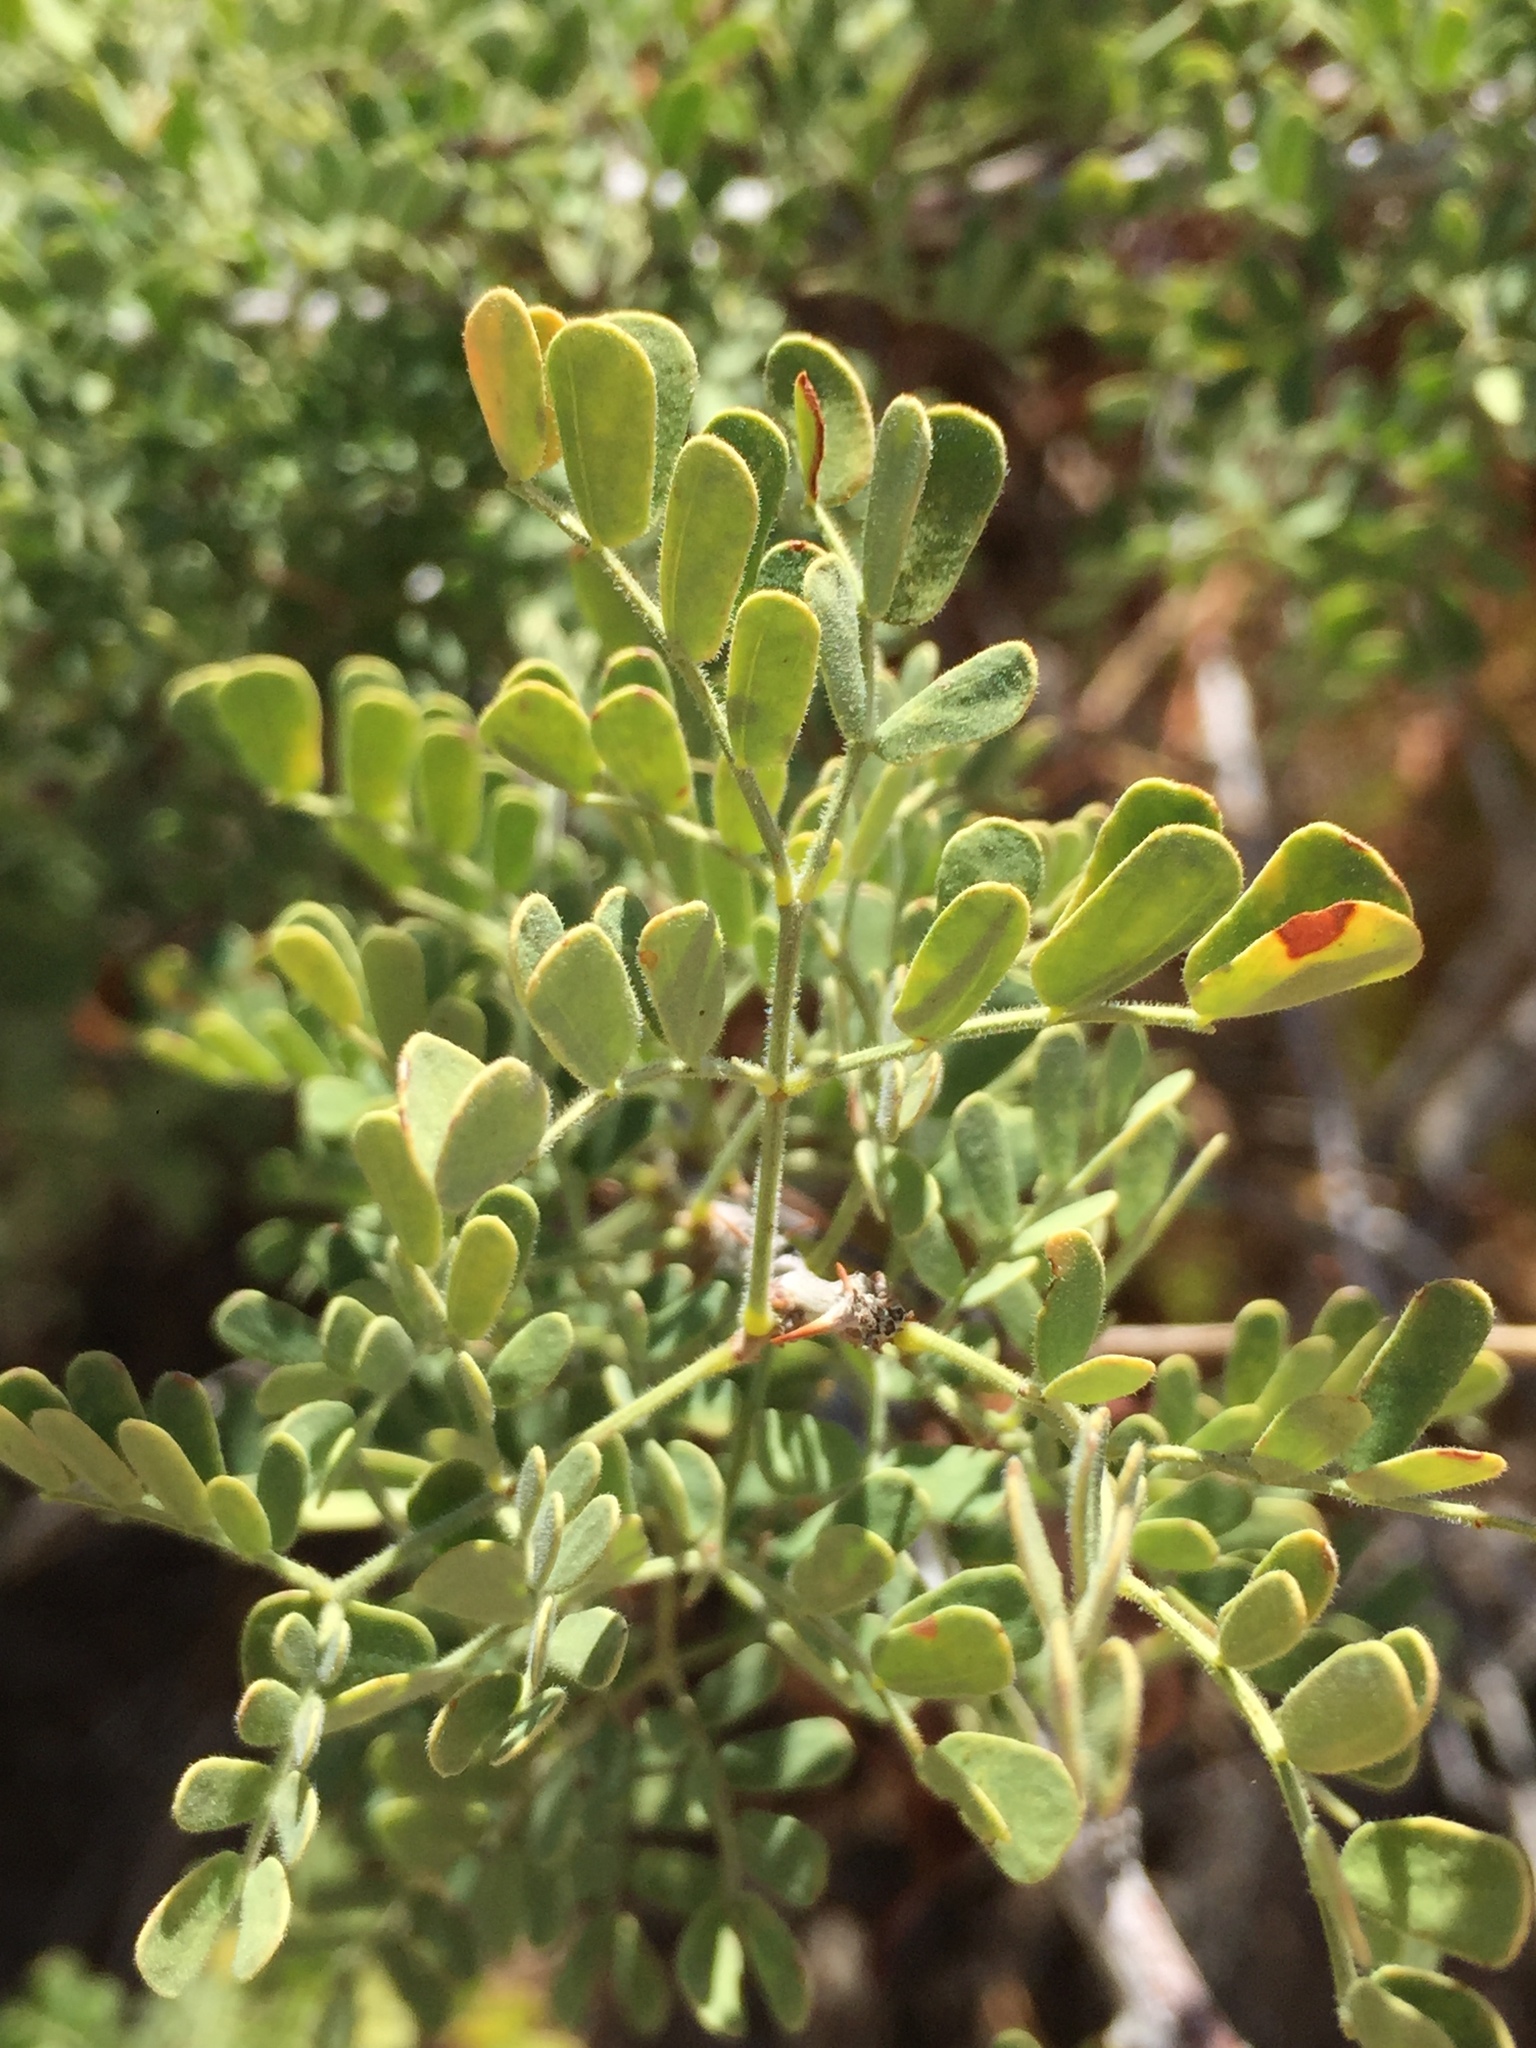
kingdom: Plantae
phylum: Tracheophyta
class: Magnoliopsida
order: Fabales
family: Fabaceae
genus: Senegalia
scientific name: Senegalia greggii
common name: Texas-mimosa
